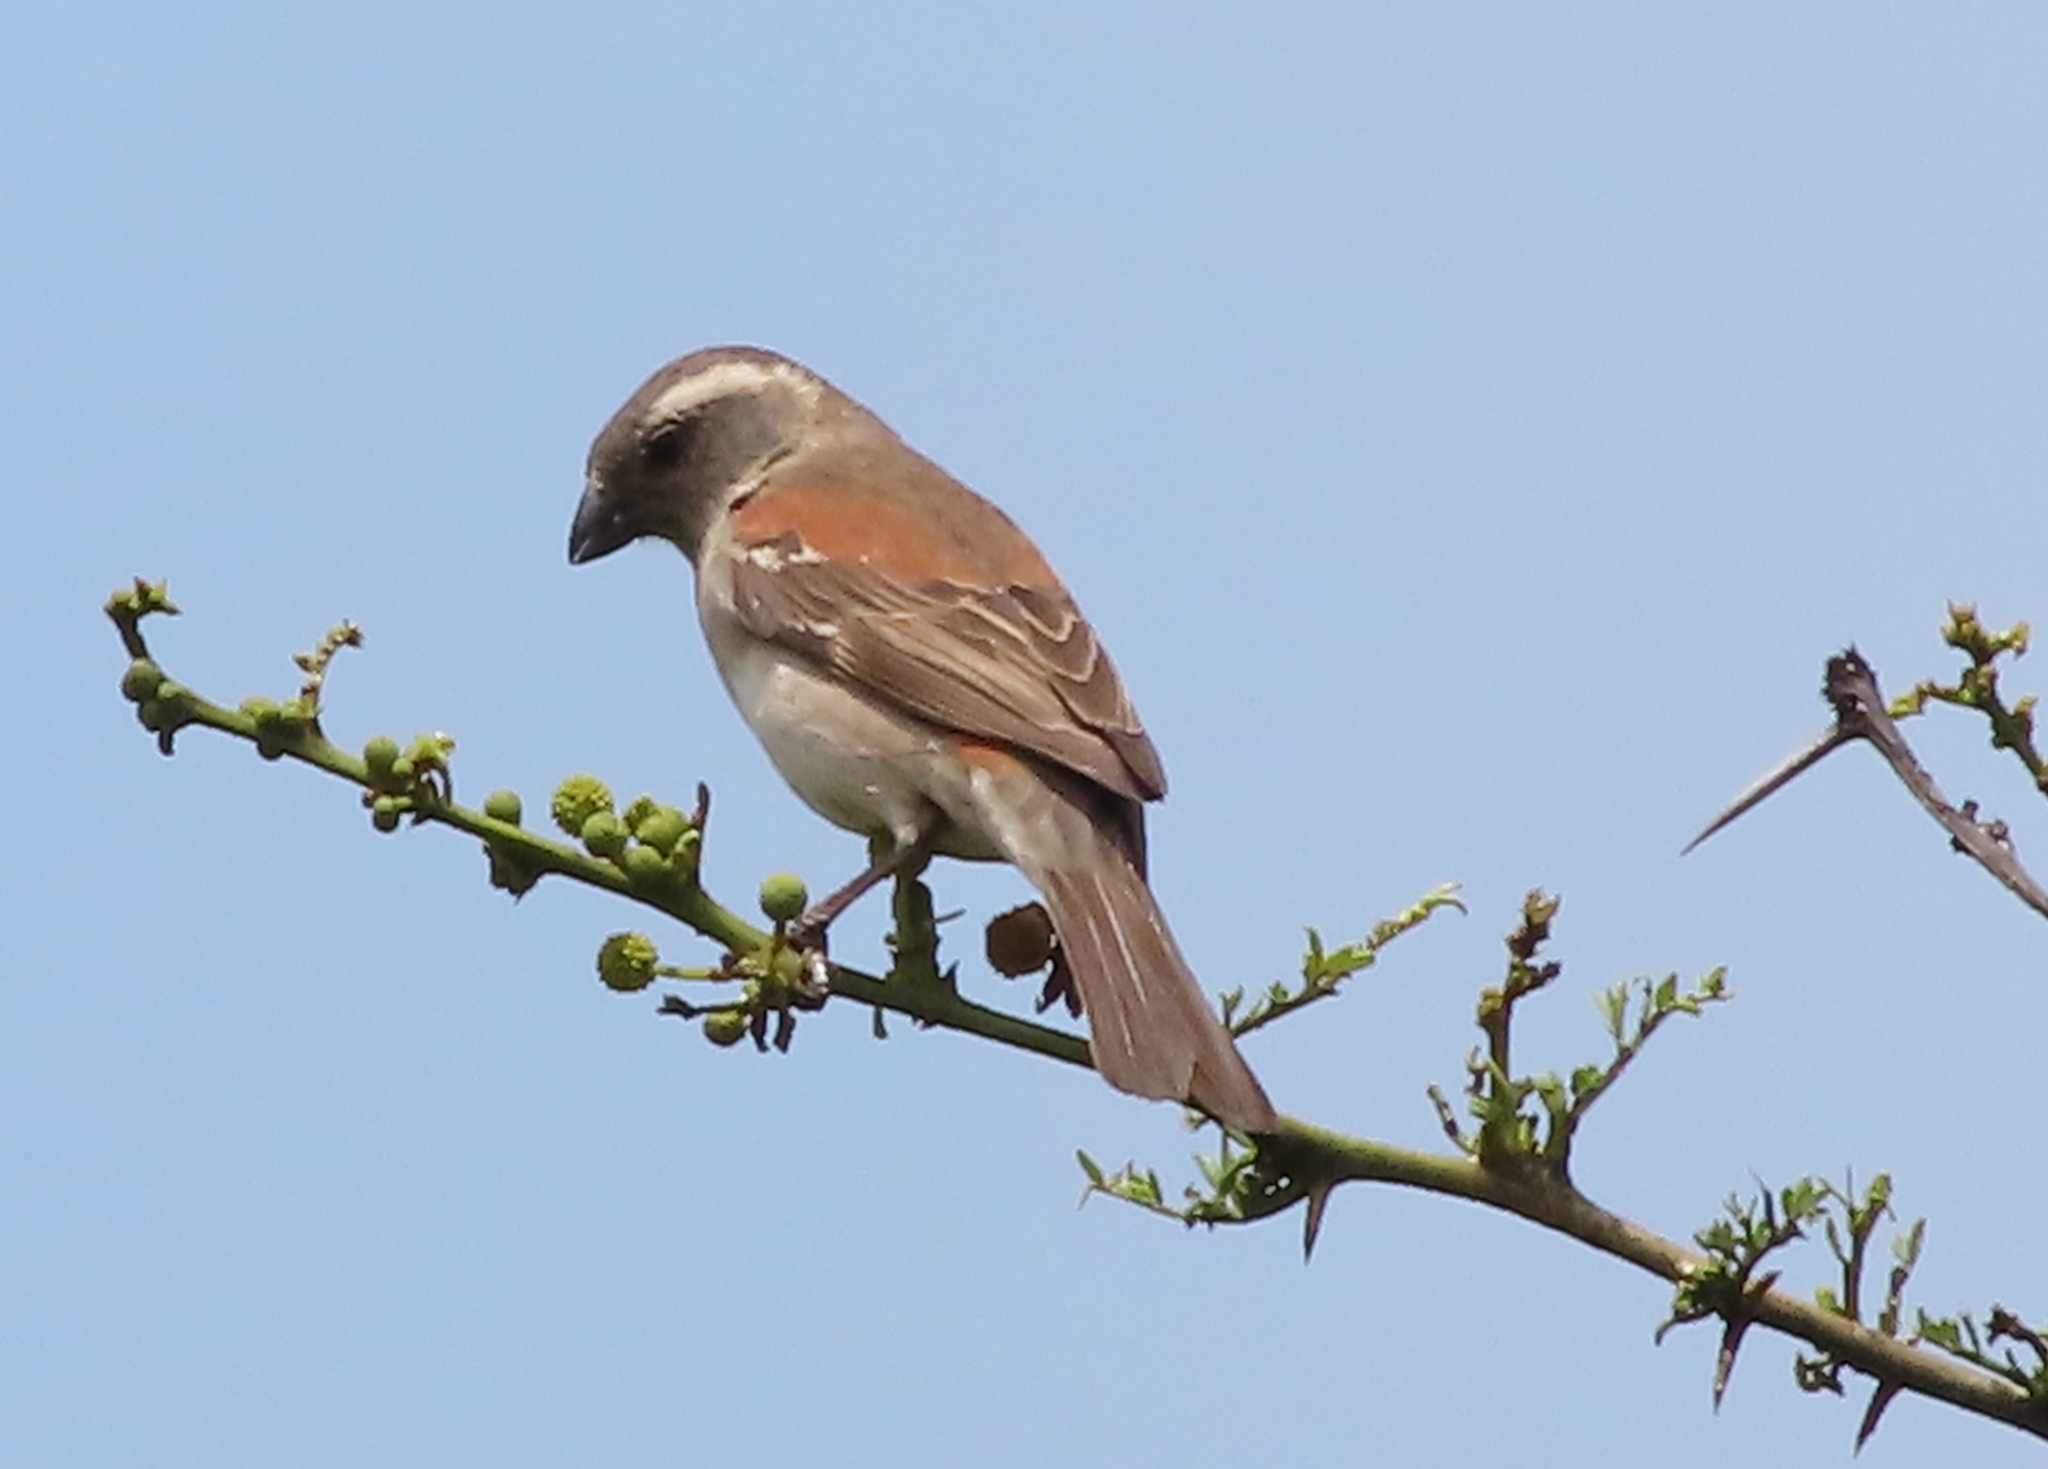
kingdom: Animalia
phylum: Chordata
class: Aves
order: Passeriformes
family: Passeridae
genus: Passer
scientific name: Passer melanurus
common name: Cape sparrow
